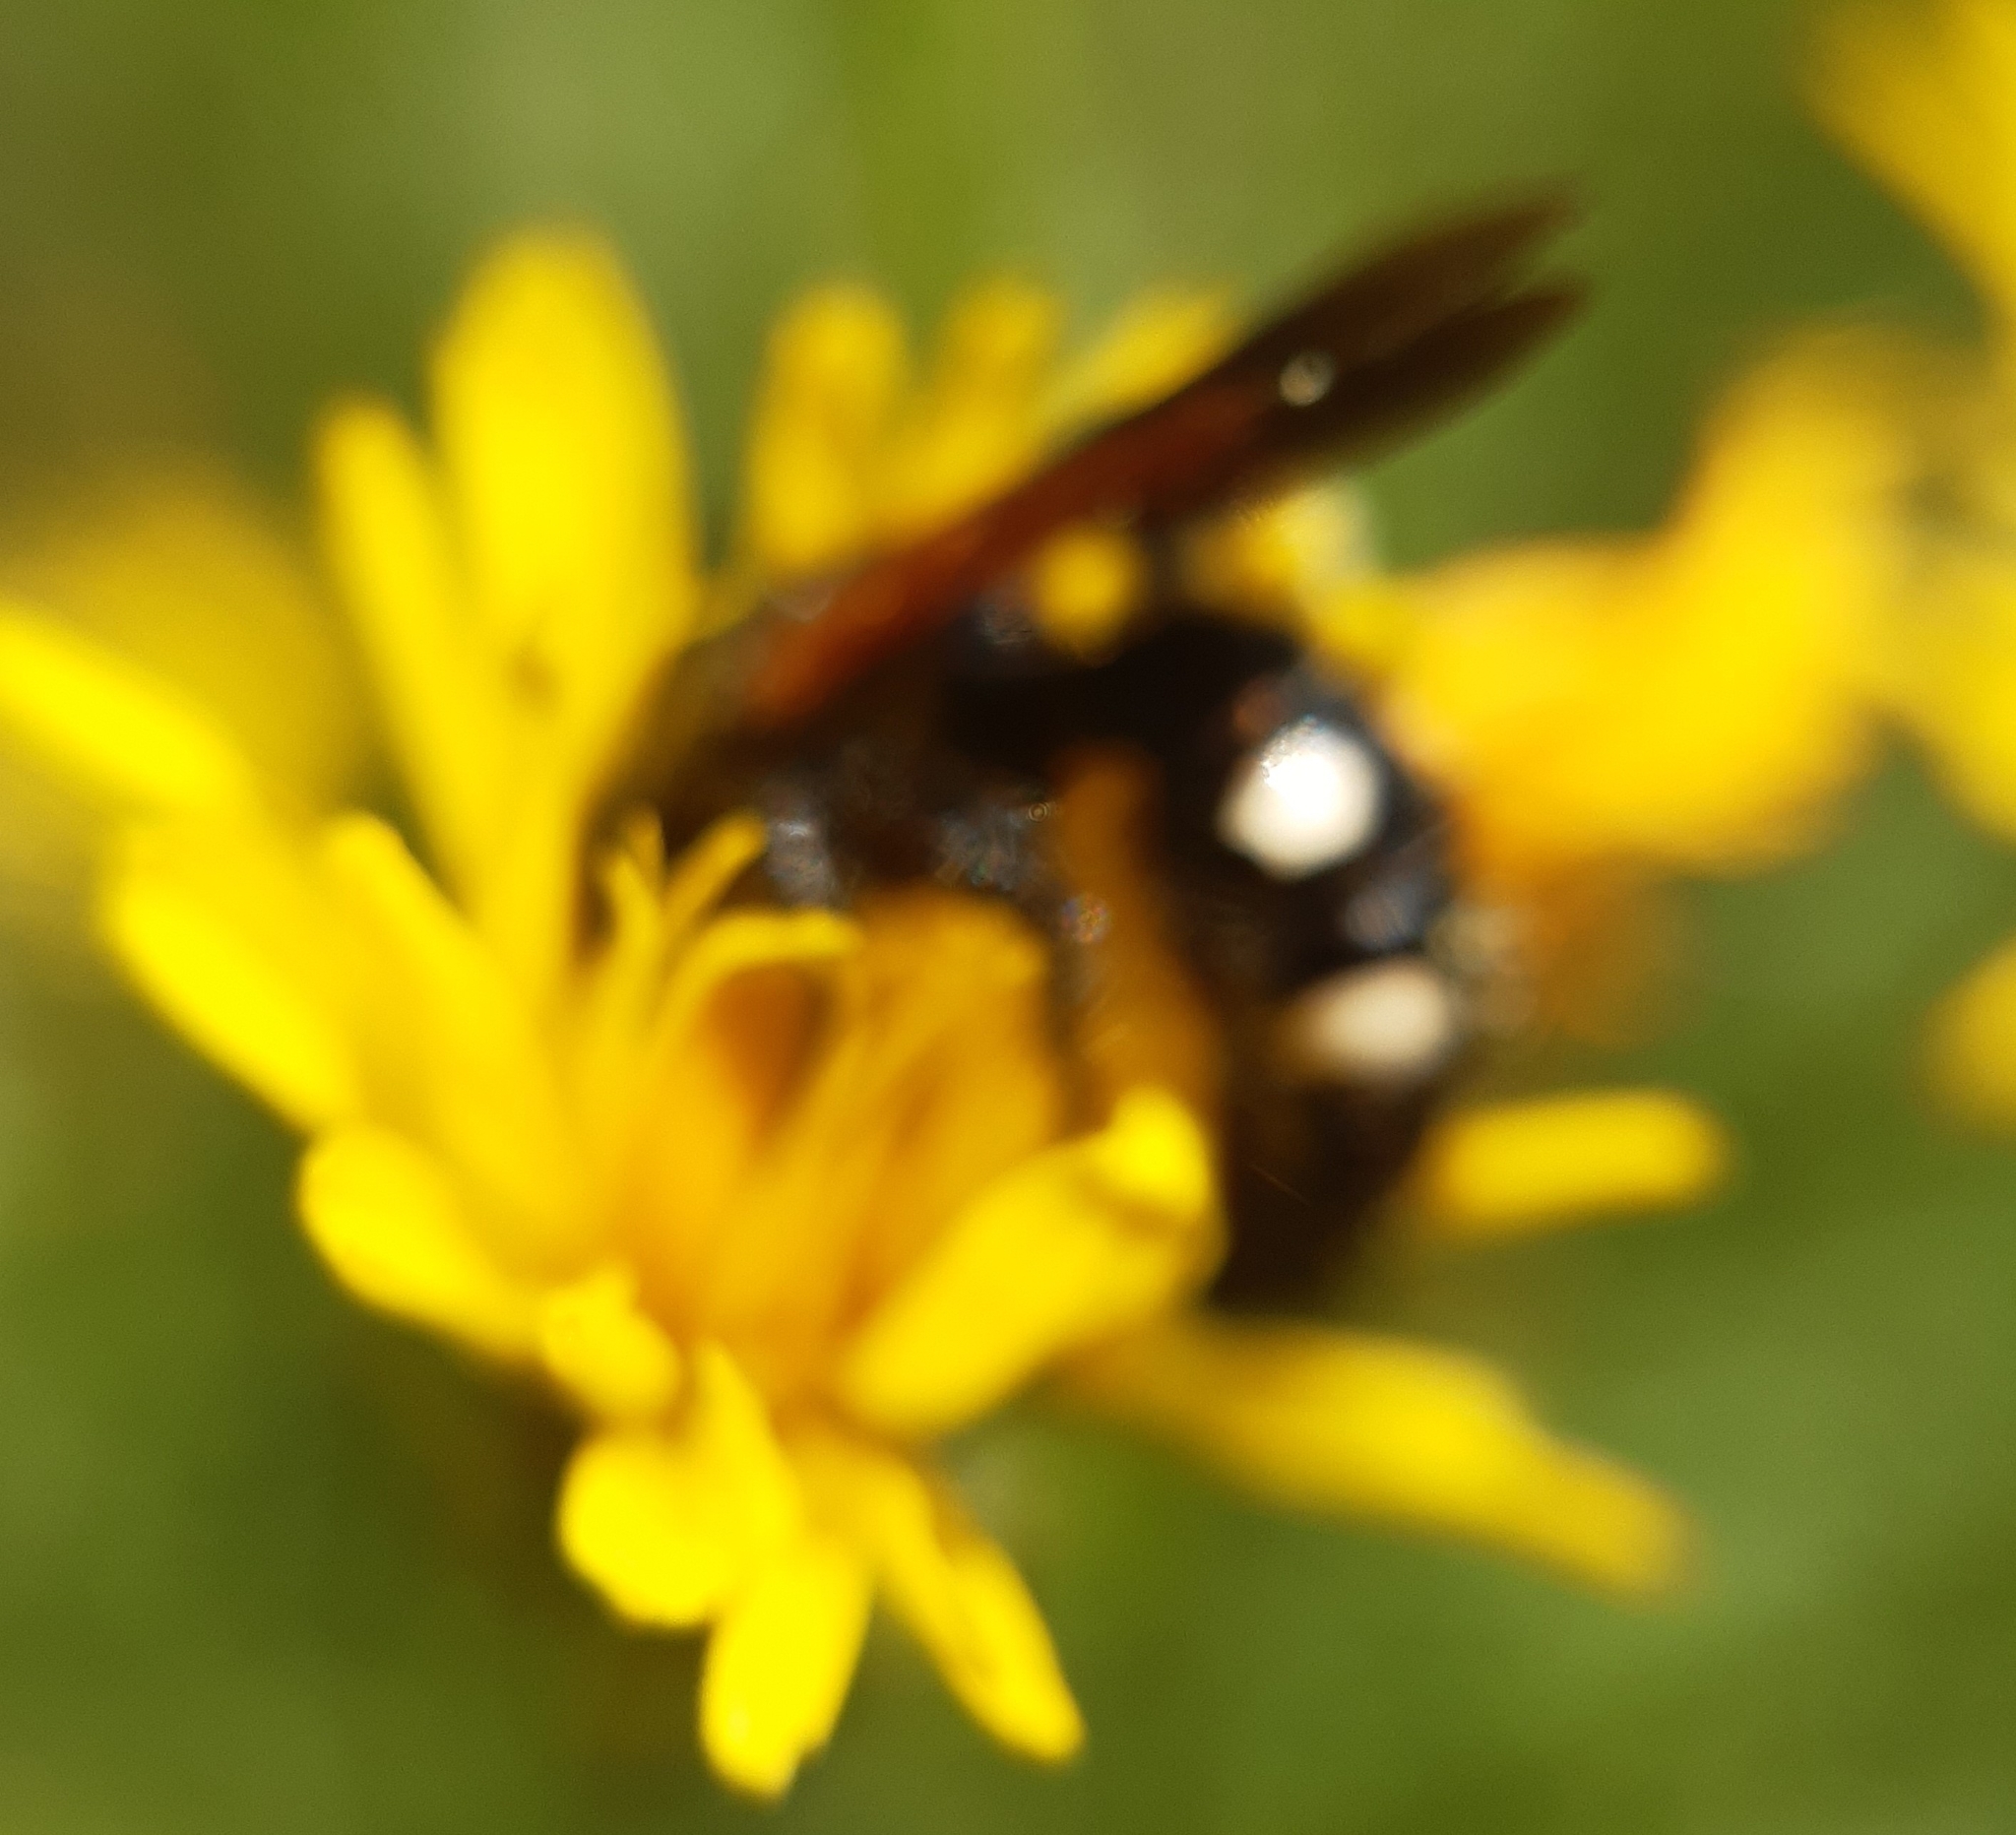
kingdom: Animalia
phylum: Arthropoda
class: Insecta
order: Hymenoptera
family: Vespidae
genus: Vespa
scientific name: Vespa sexmaculata
